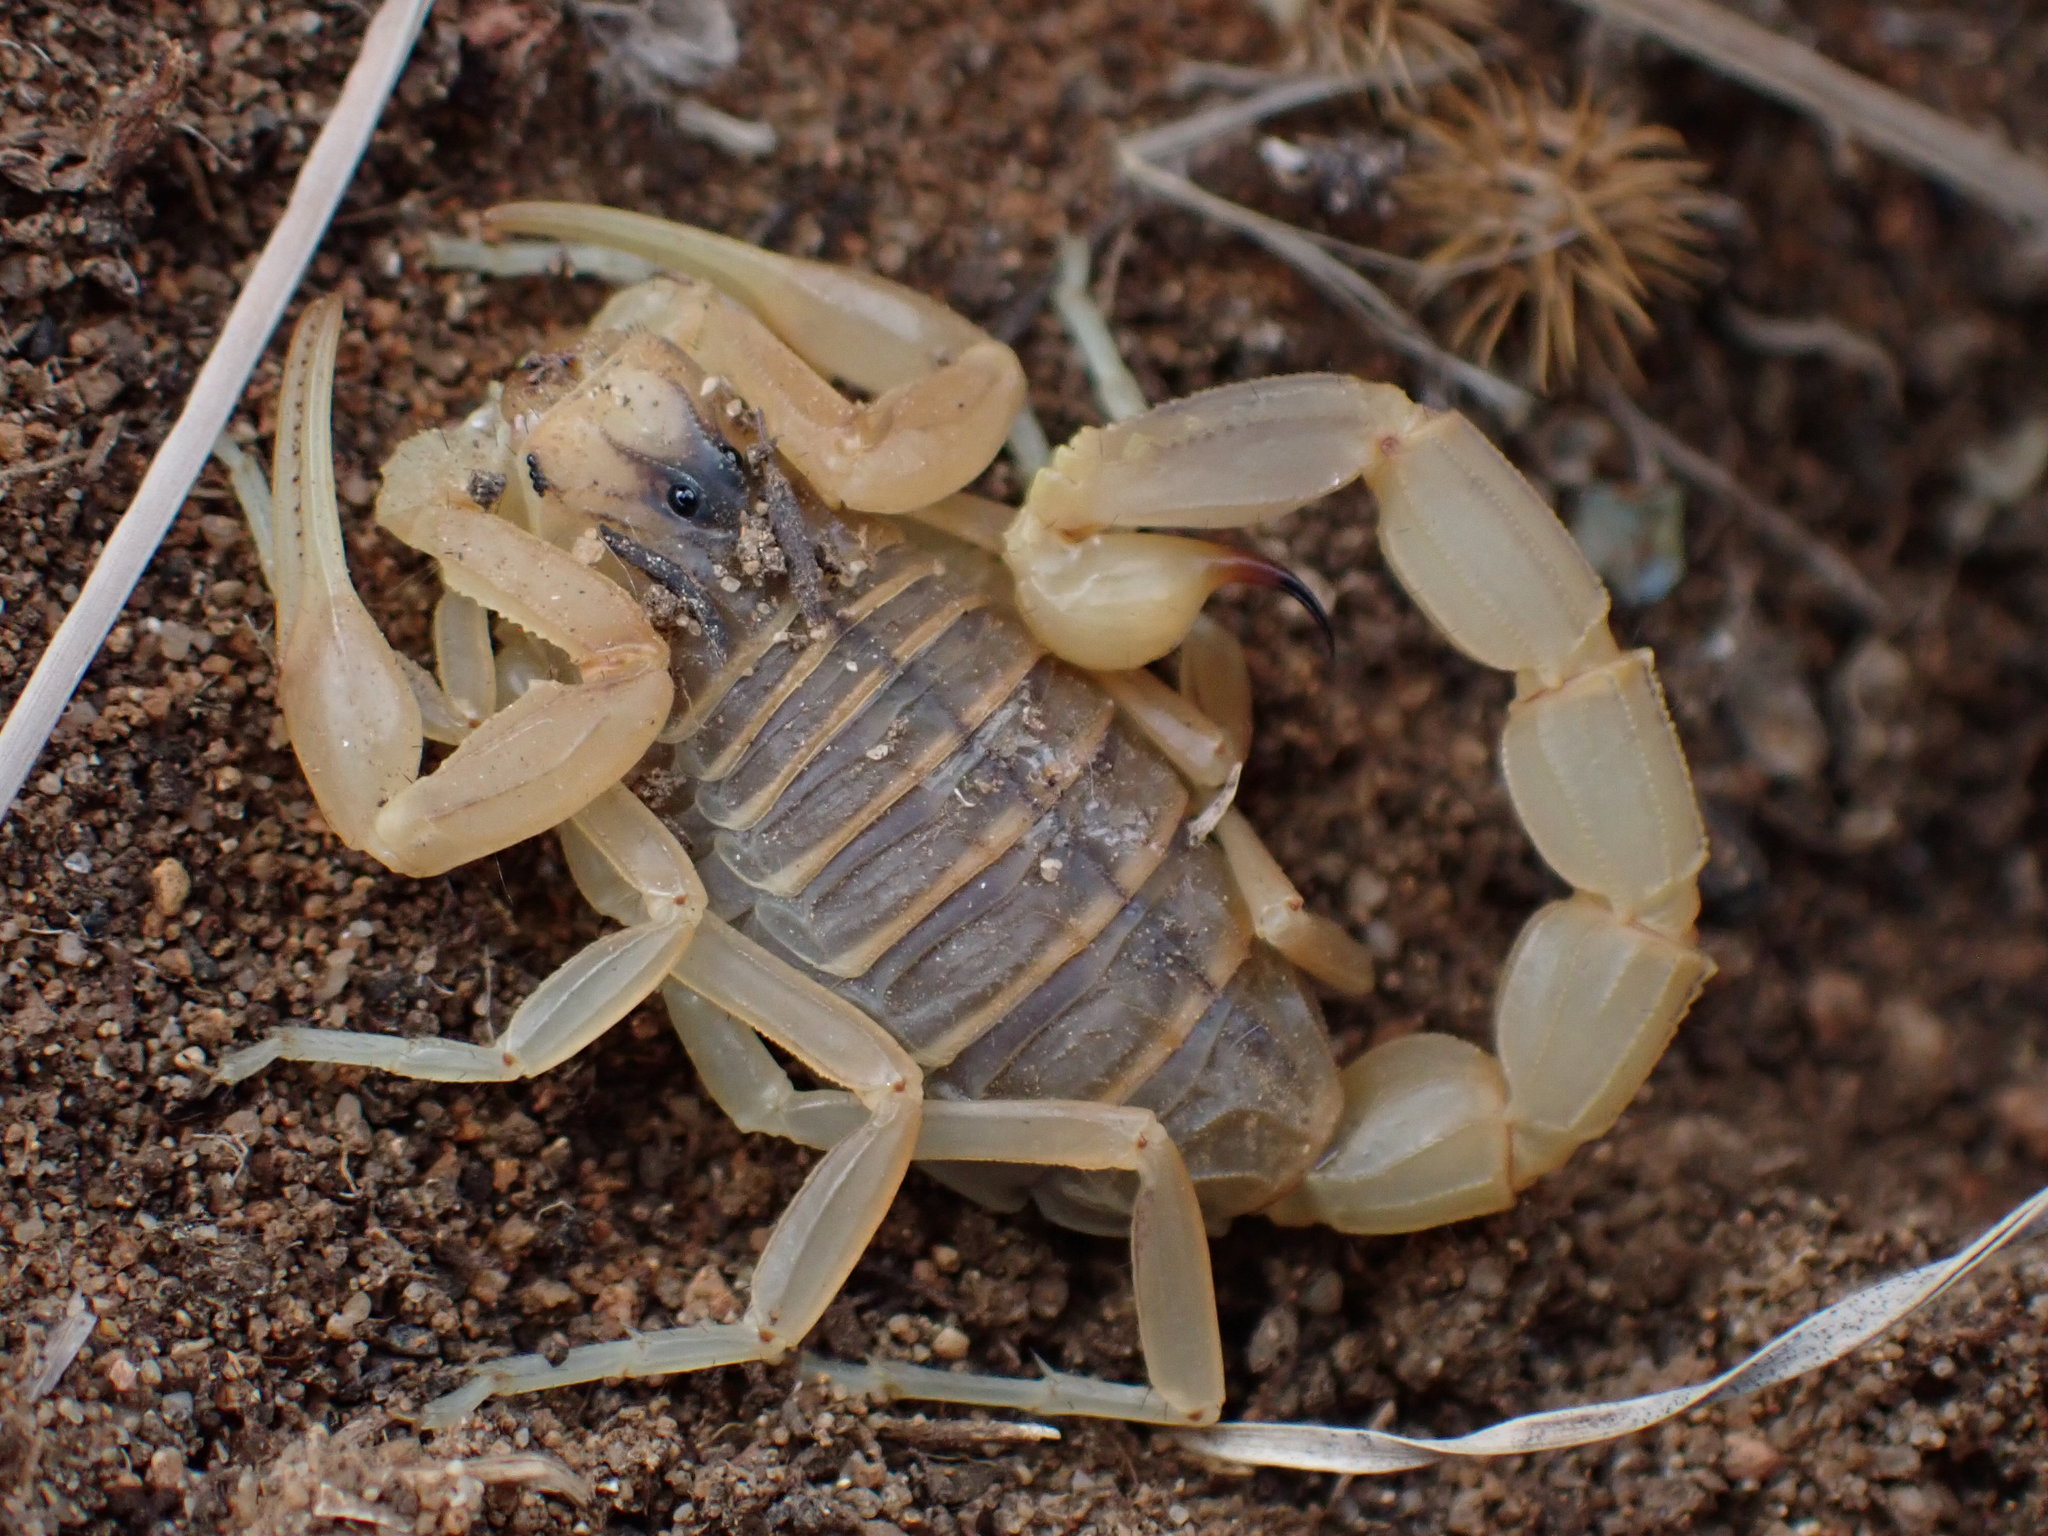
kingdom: Animalia
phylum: Arthropoda
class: Arachnida
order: Scorpiones
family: Buthidae
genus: Buthus
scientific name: Buthus occitanus
